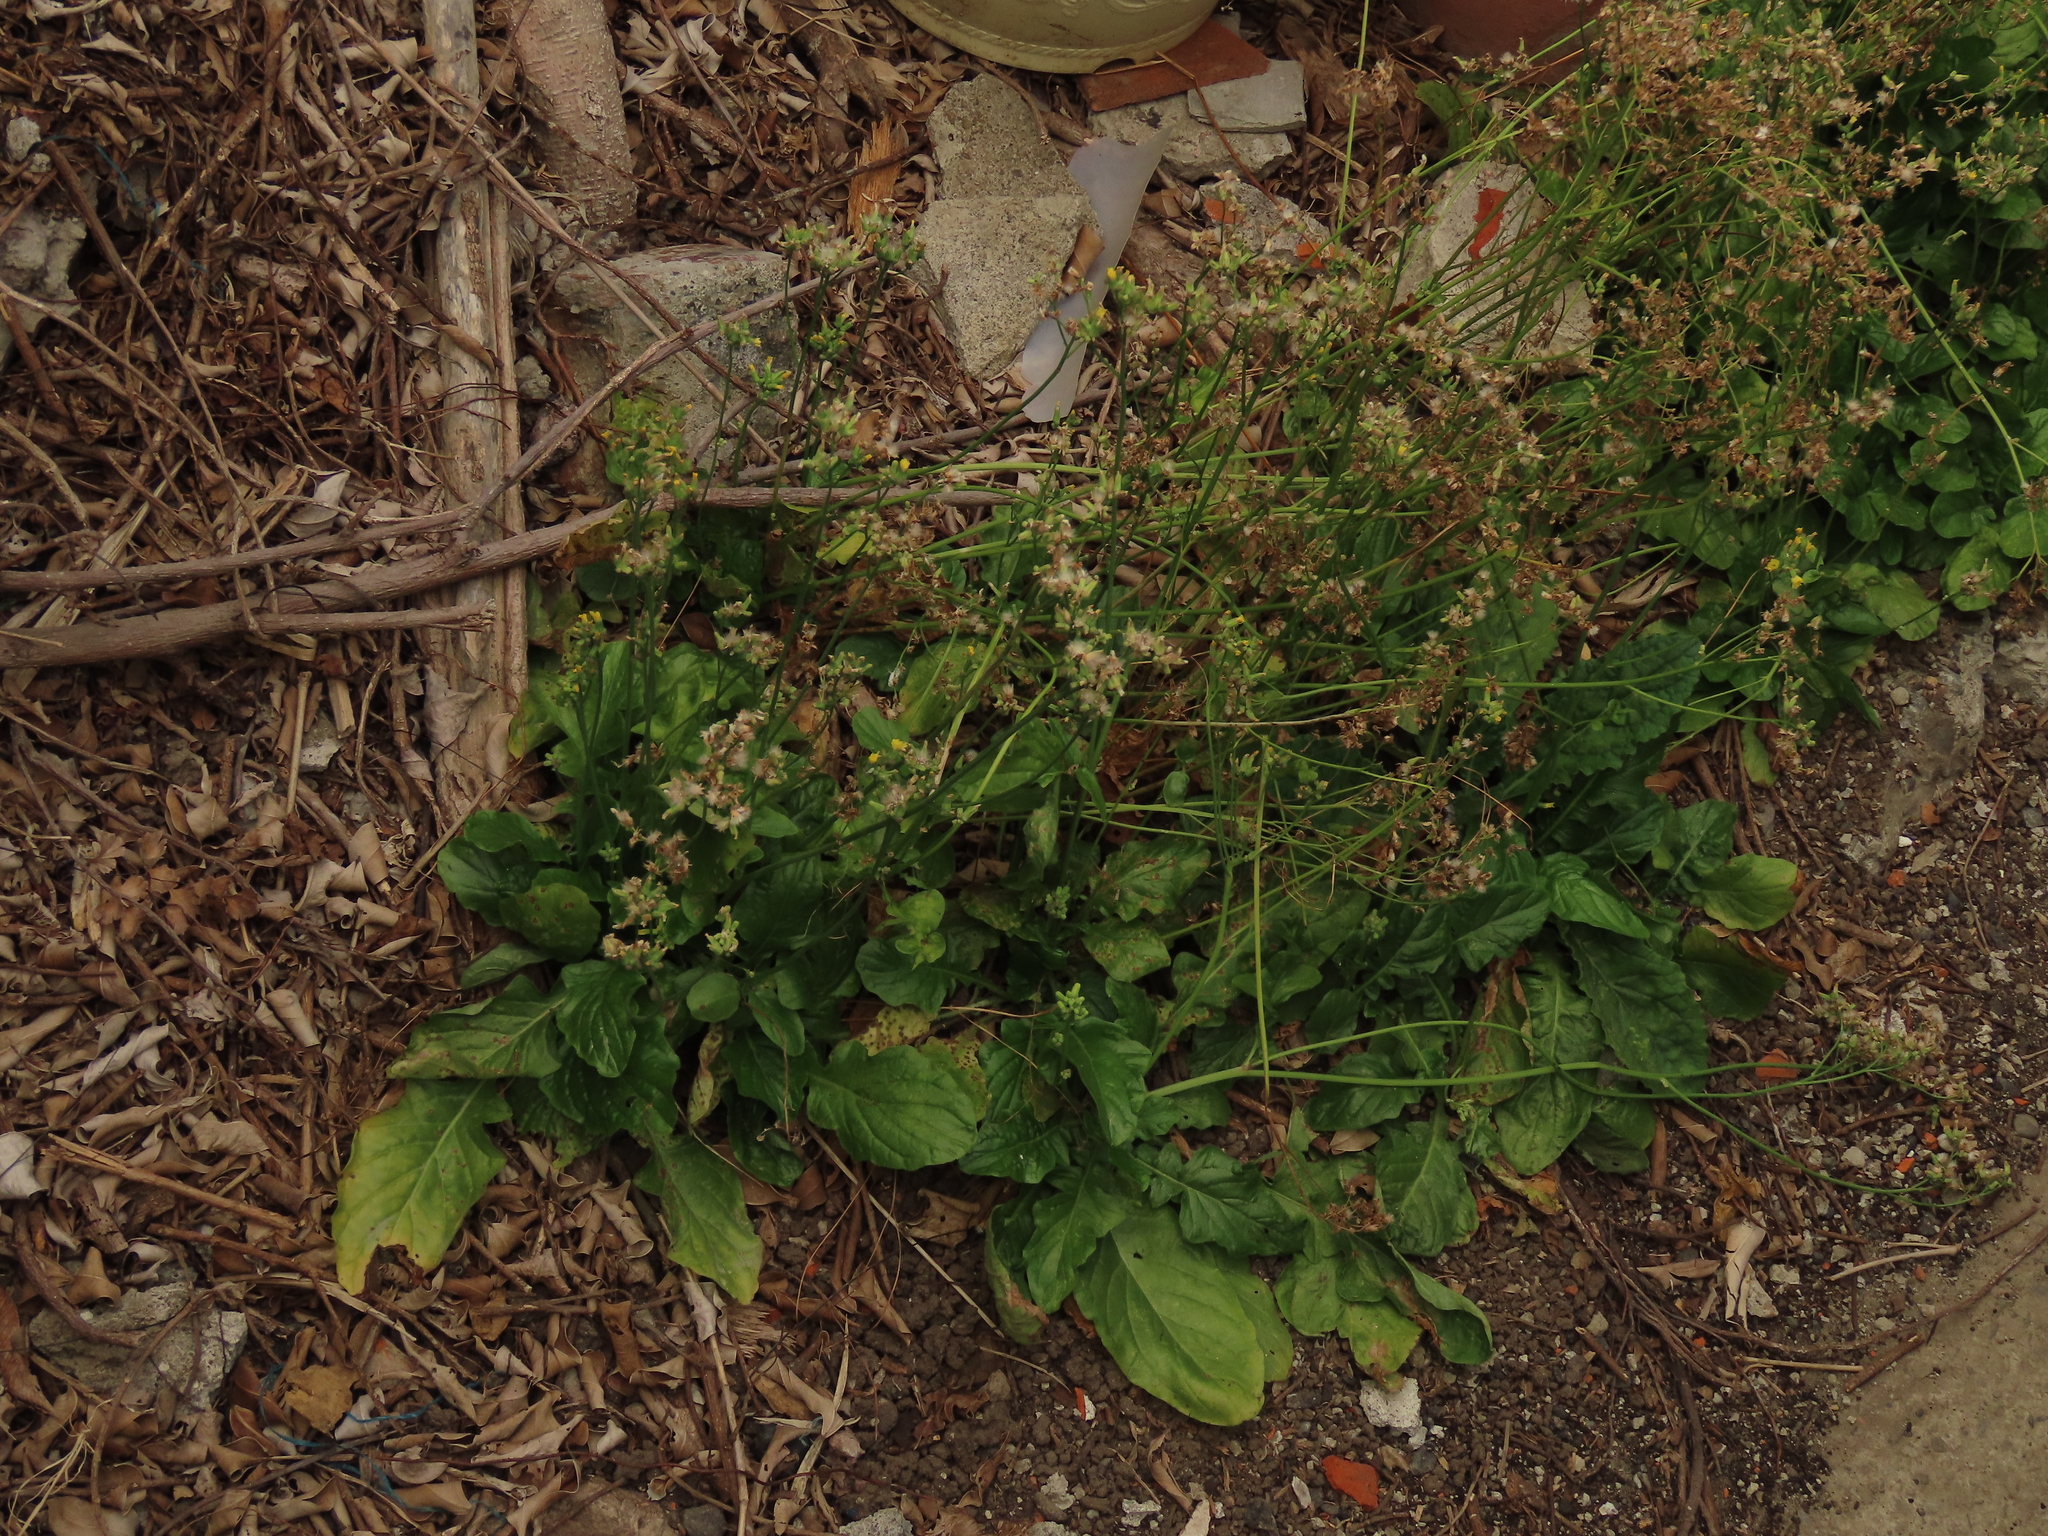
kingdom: Plantae
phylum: Tracheophyta
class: Magnoliopsida
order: Asterales
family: Asteraceae
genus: Youngia
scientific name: Youngia japonica
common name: Oriental false hawksbeard
